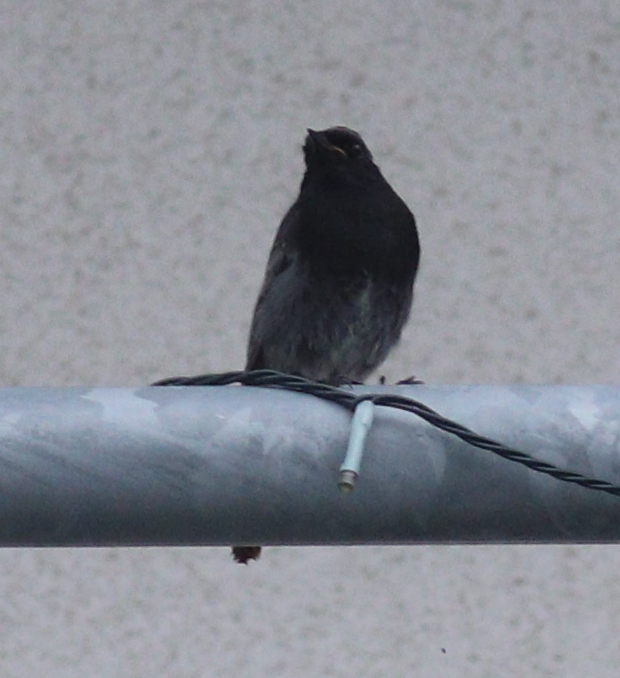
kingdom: Animalia
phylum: Chordata
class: Aves
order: Passeriformes
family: Muscicapidae
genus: Phoenicurus
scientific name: Phoenicurus ochruros
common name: Black redstart
